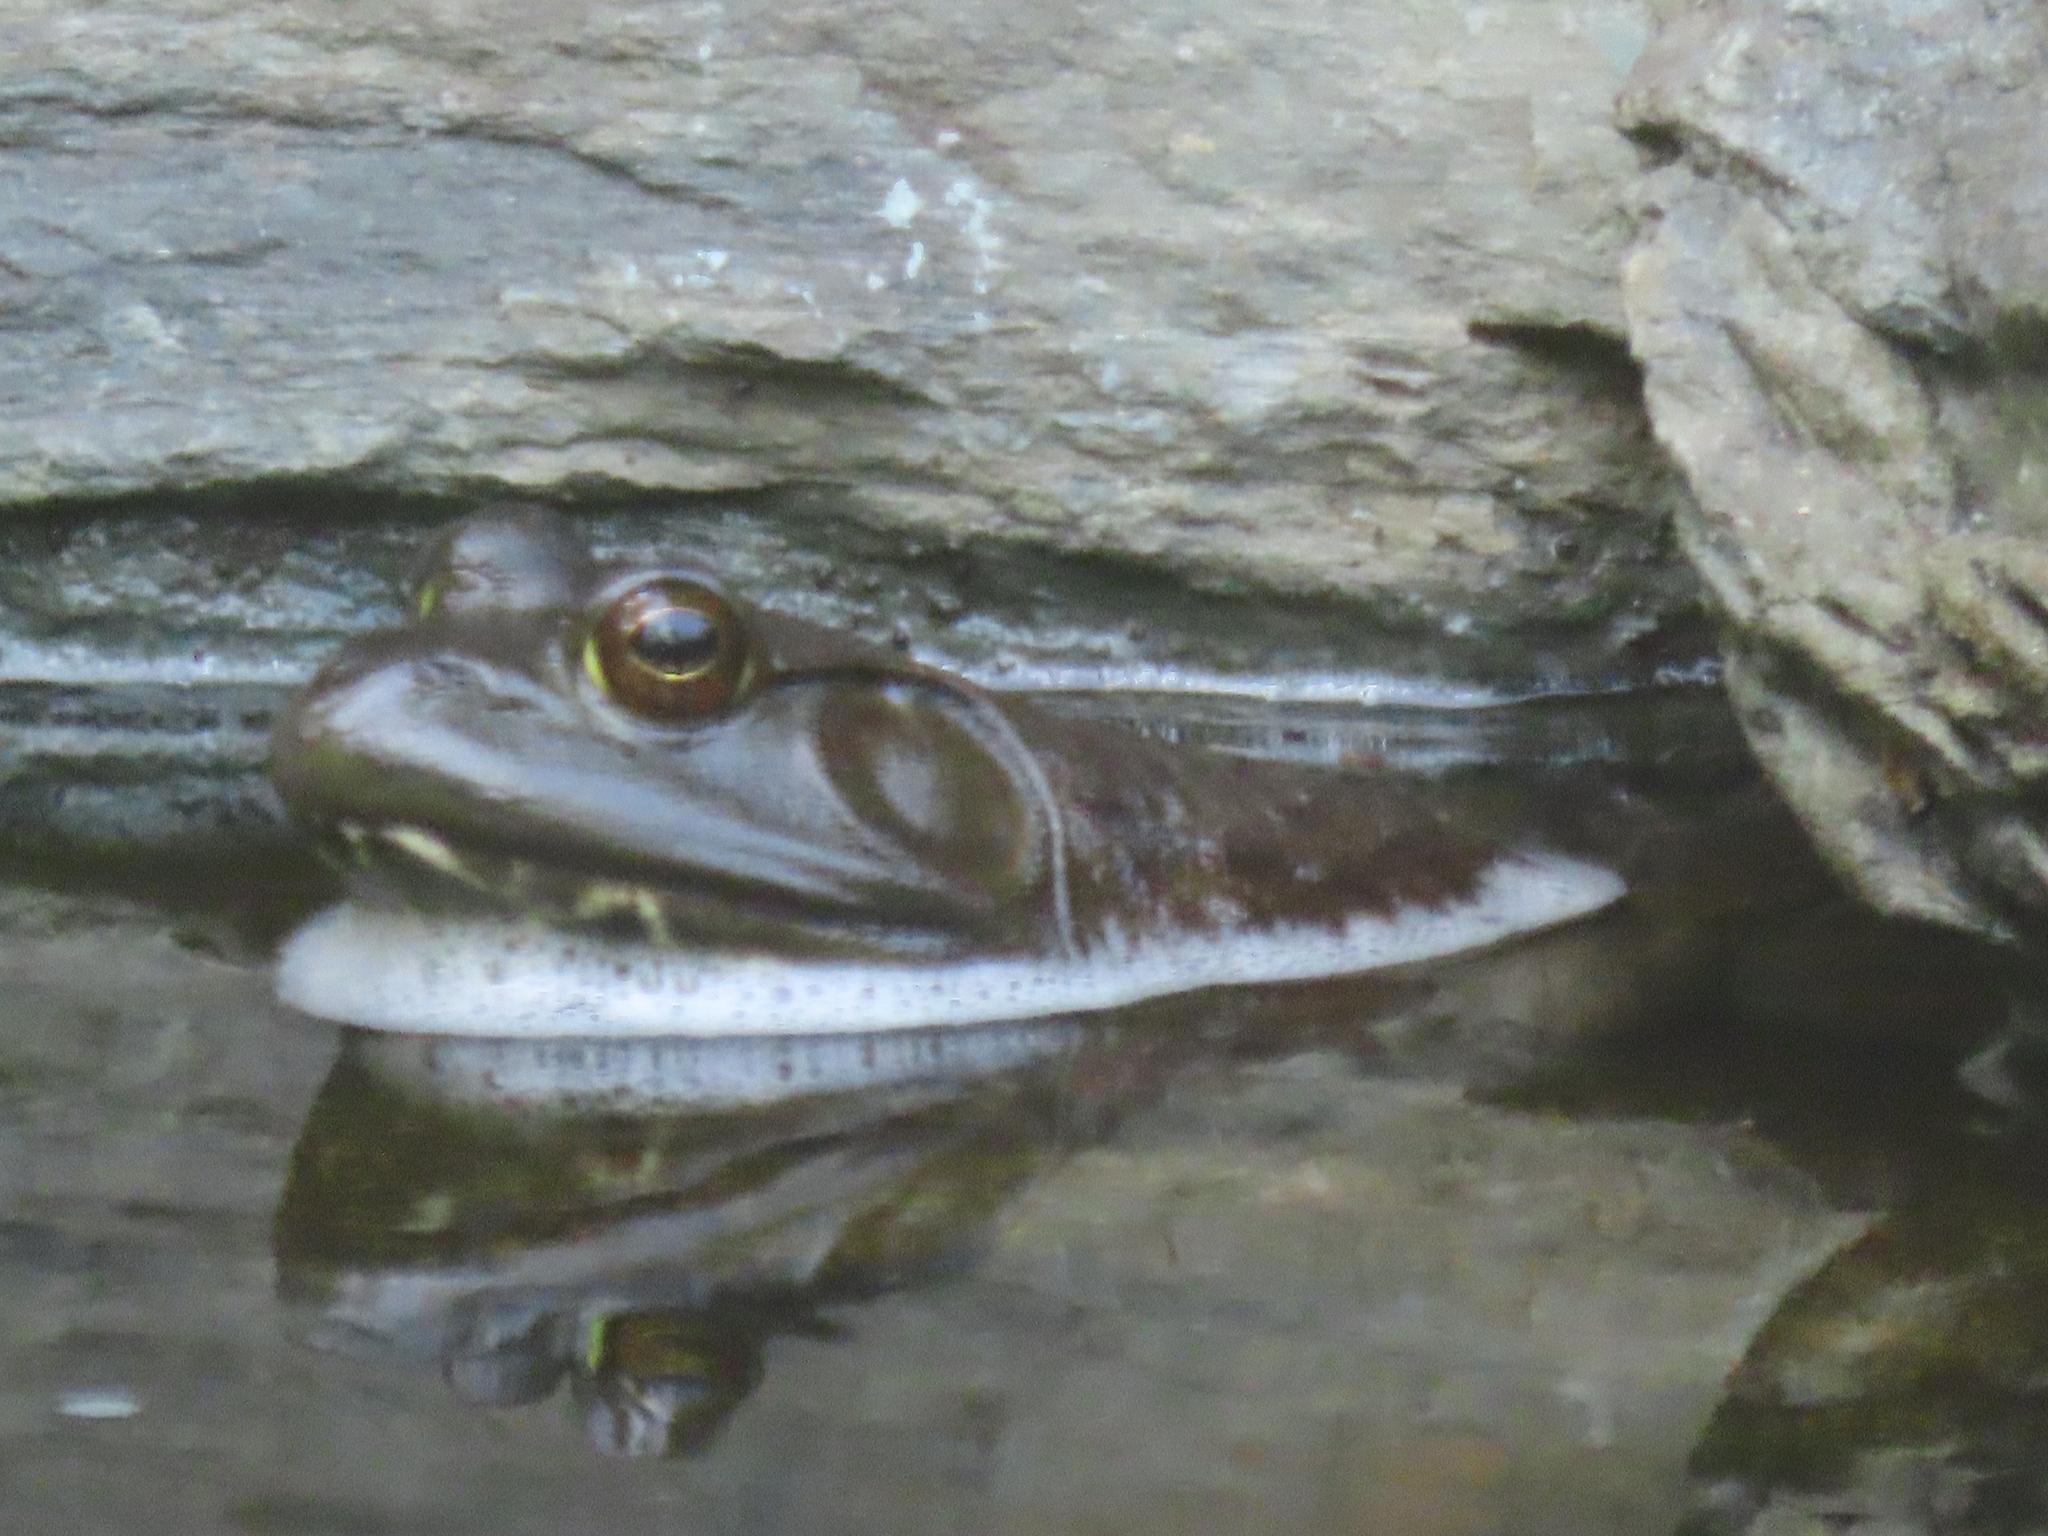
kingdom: Animalia
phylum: Chordata
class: Amphibia
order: Anura
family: Ranidae
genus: Lithobates
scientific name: Lithobates catesbeianus
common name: American bullfrog
